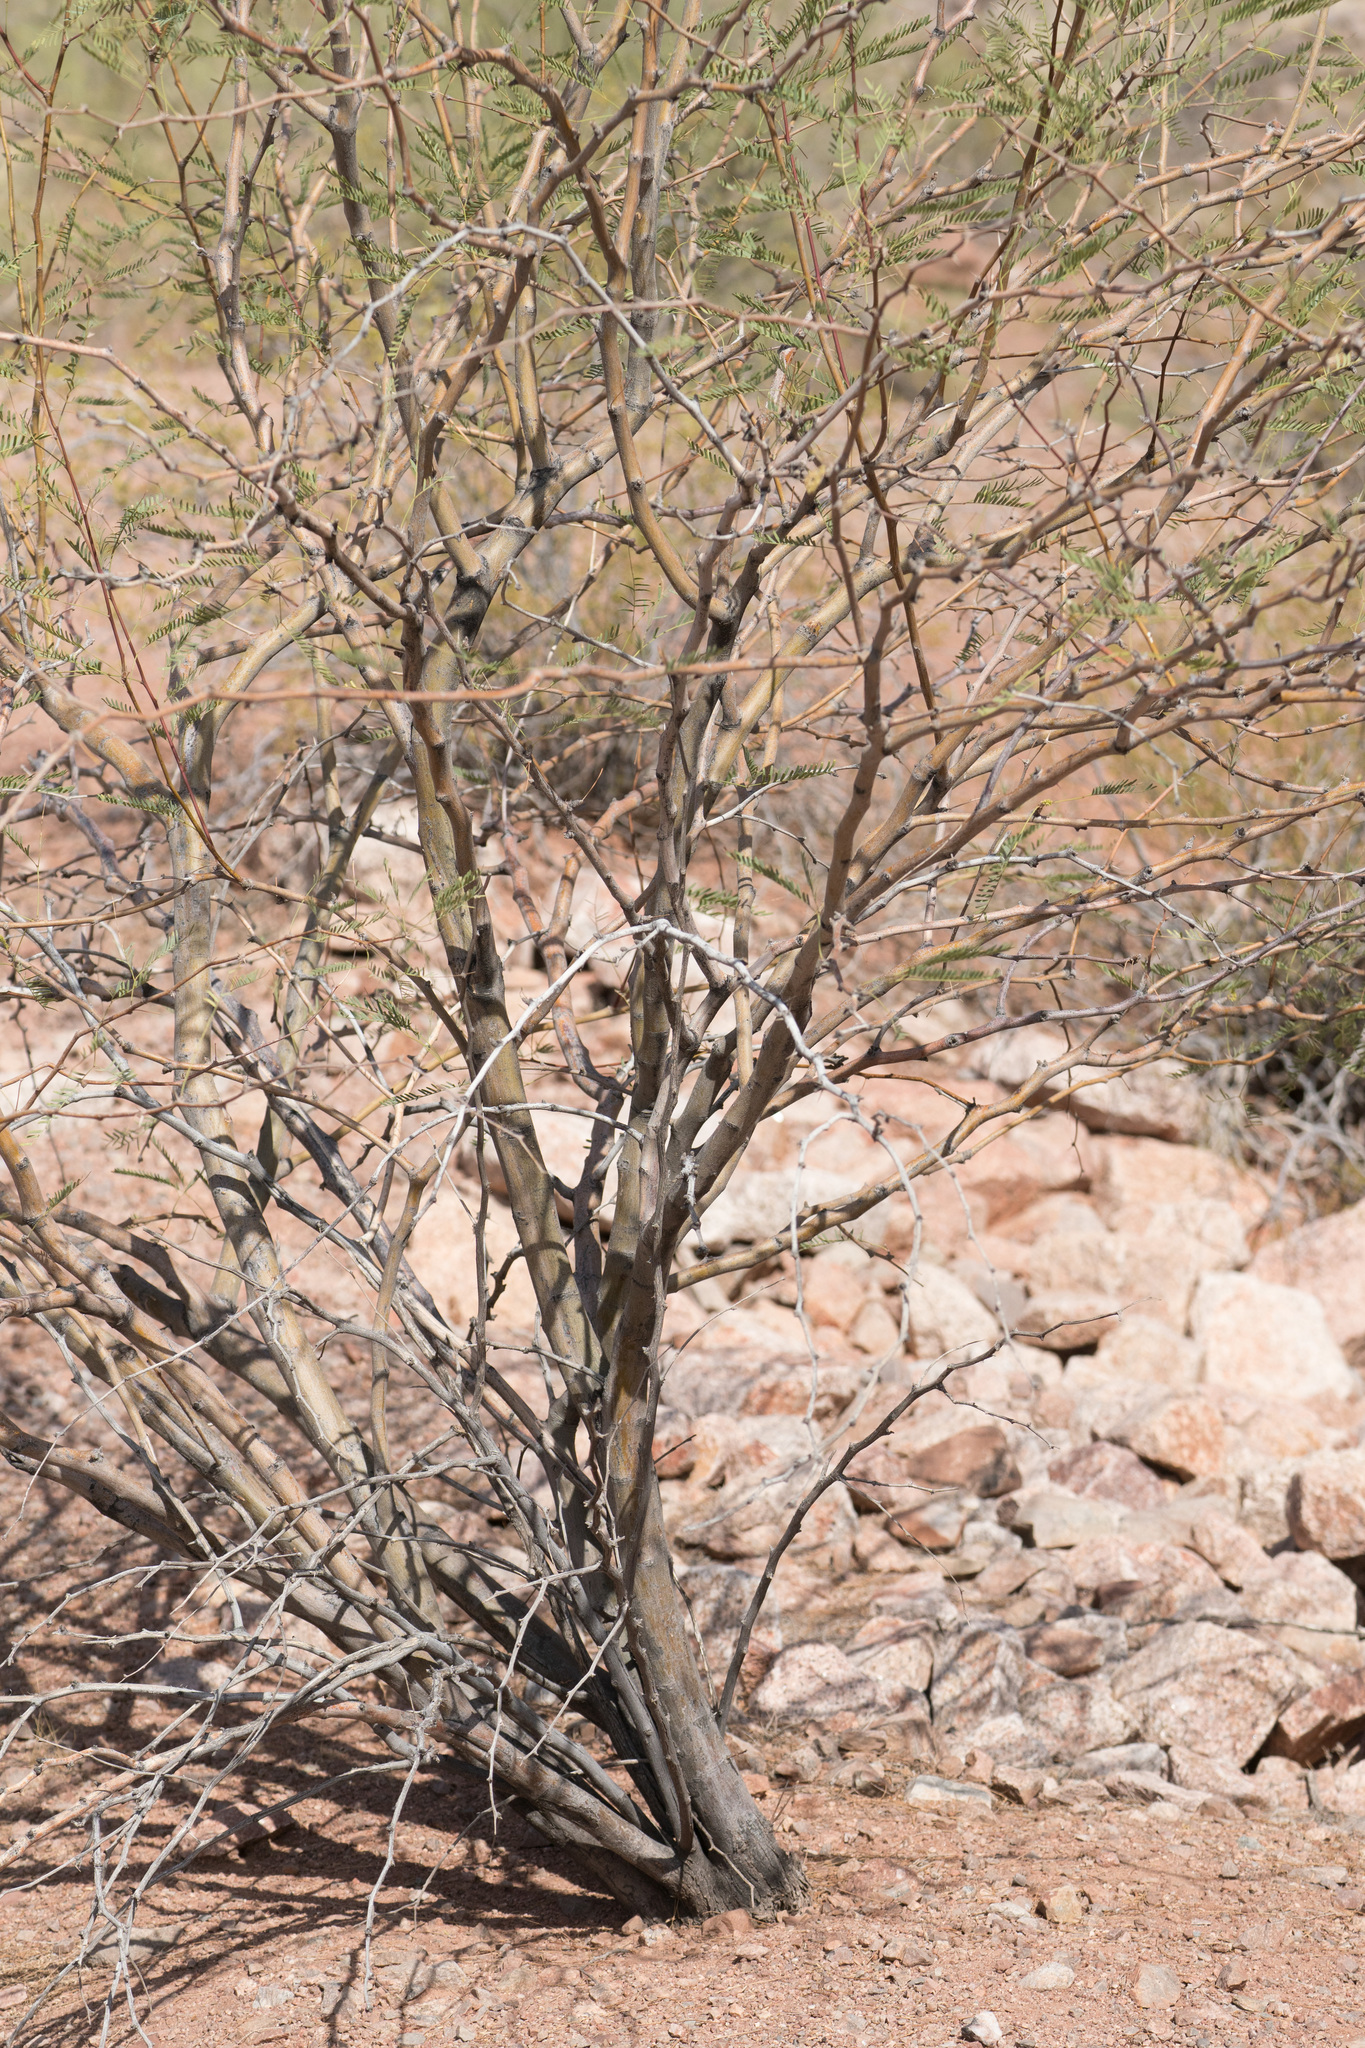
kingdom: Plantae
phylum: Tracheophyta
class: Magnoliopsida
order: Fabales
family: Fabaceae
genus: Prosopis
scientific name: Prosopis velutina
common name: Velvet mesquite
